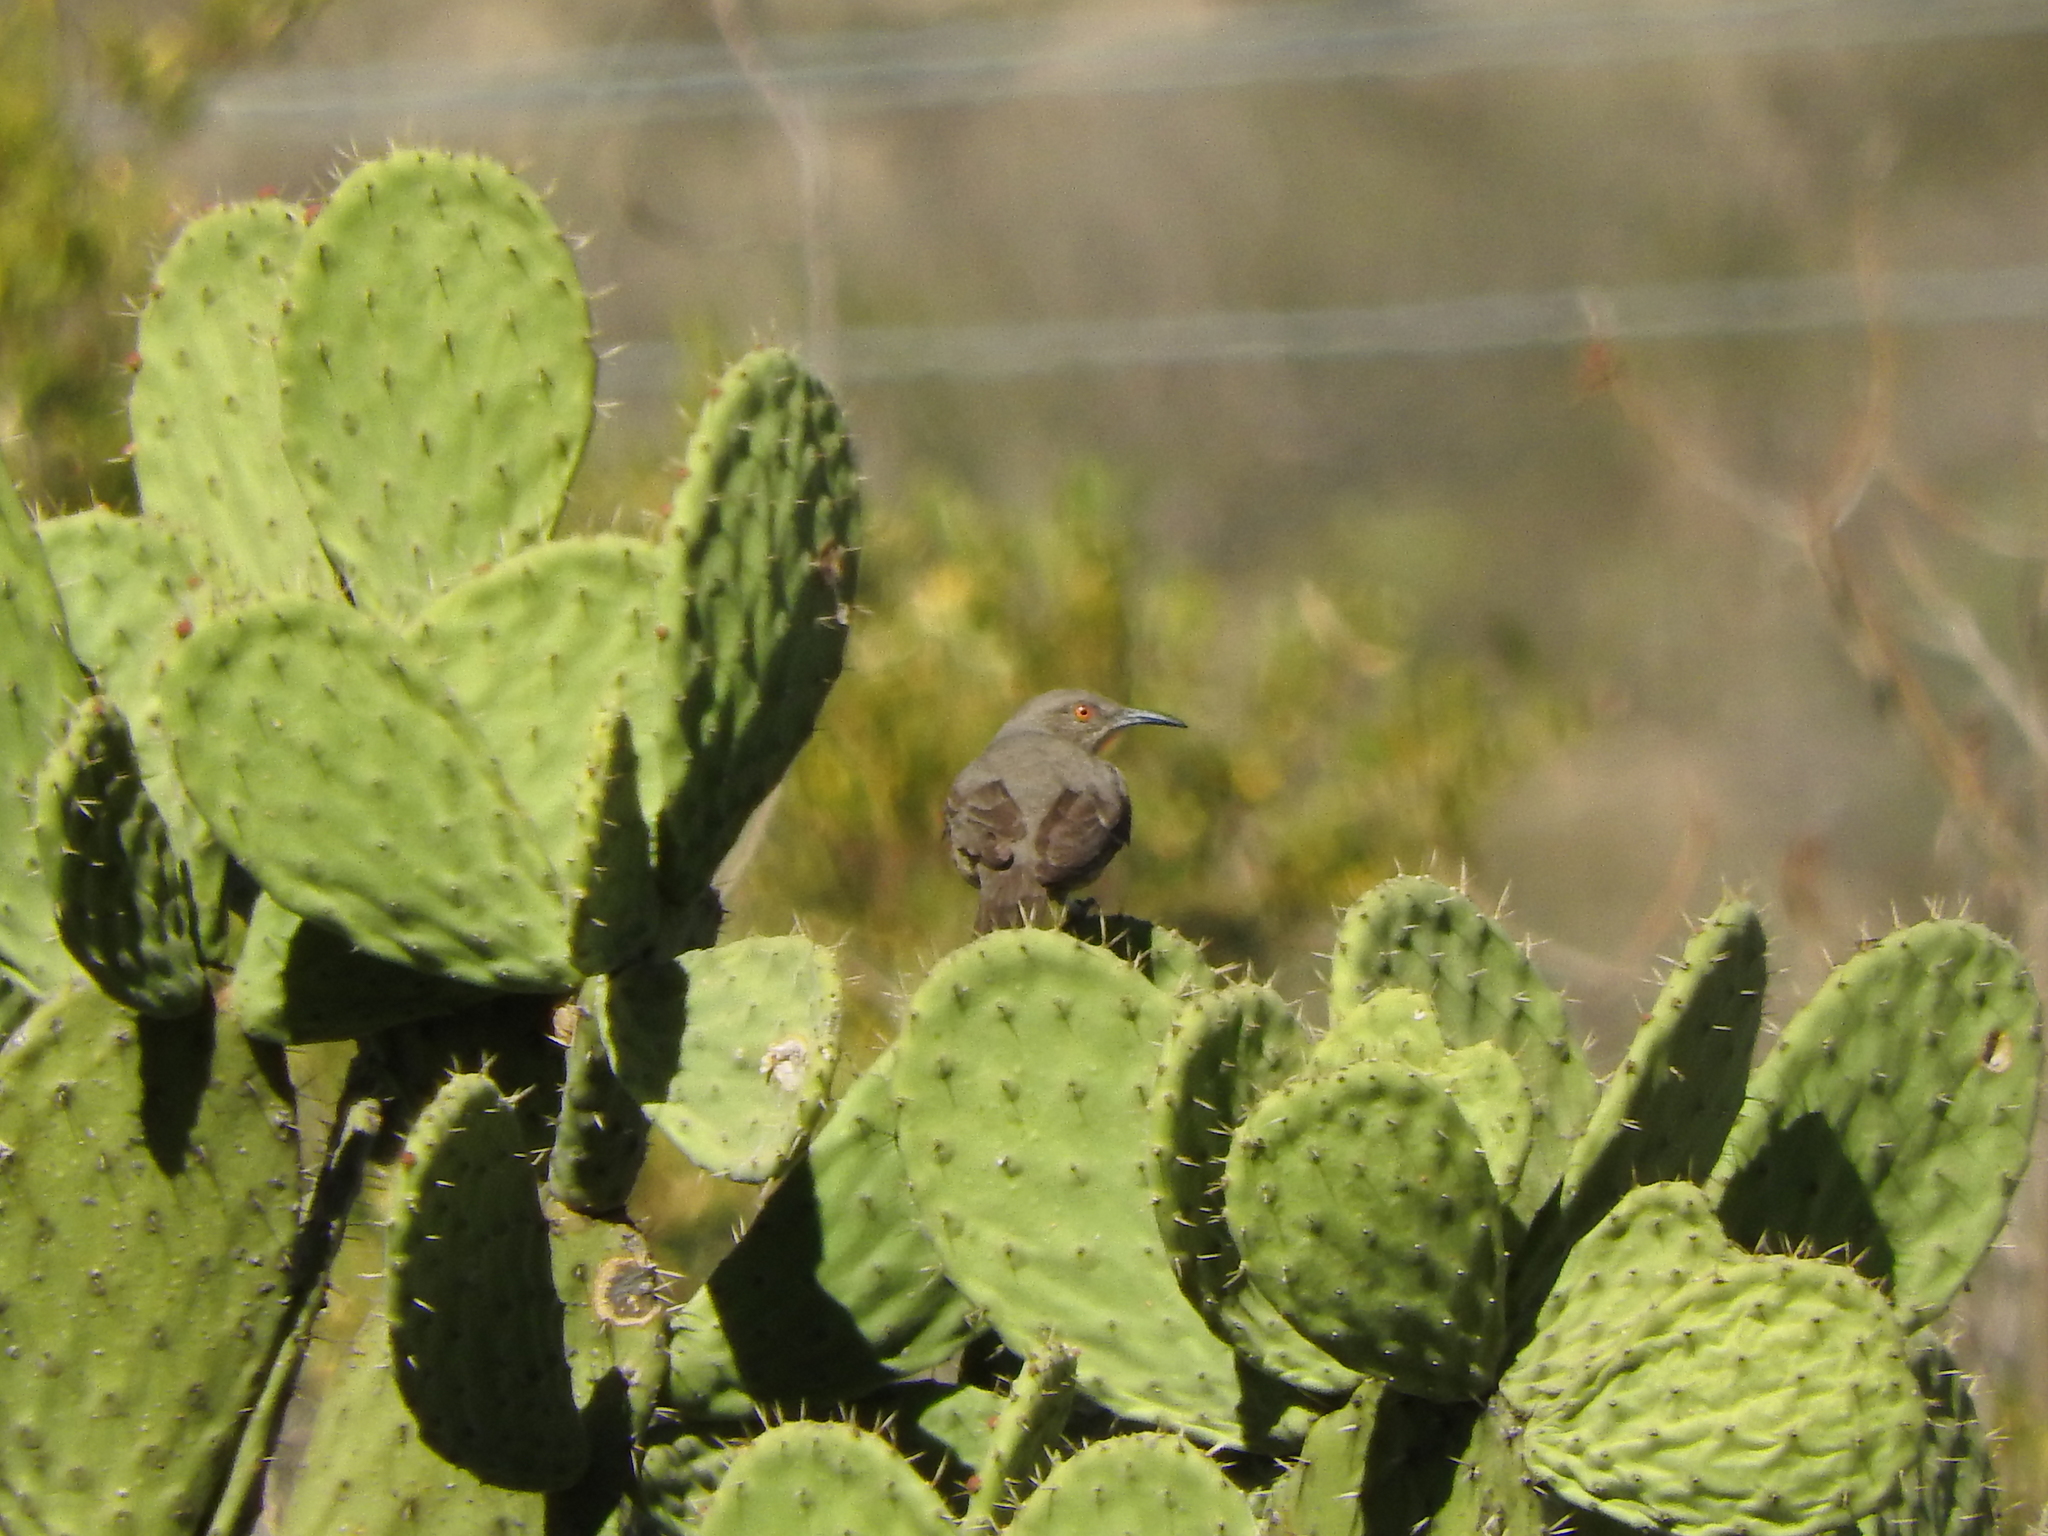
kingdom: Animalia
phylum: Chordata
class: Aves
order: Passeriformes
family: Mimidae
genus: Toxostoma
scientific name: Toxostoma curvirostre
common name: Curve-billed thrasher
